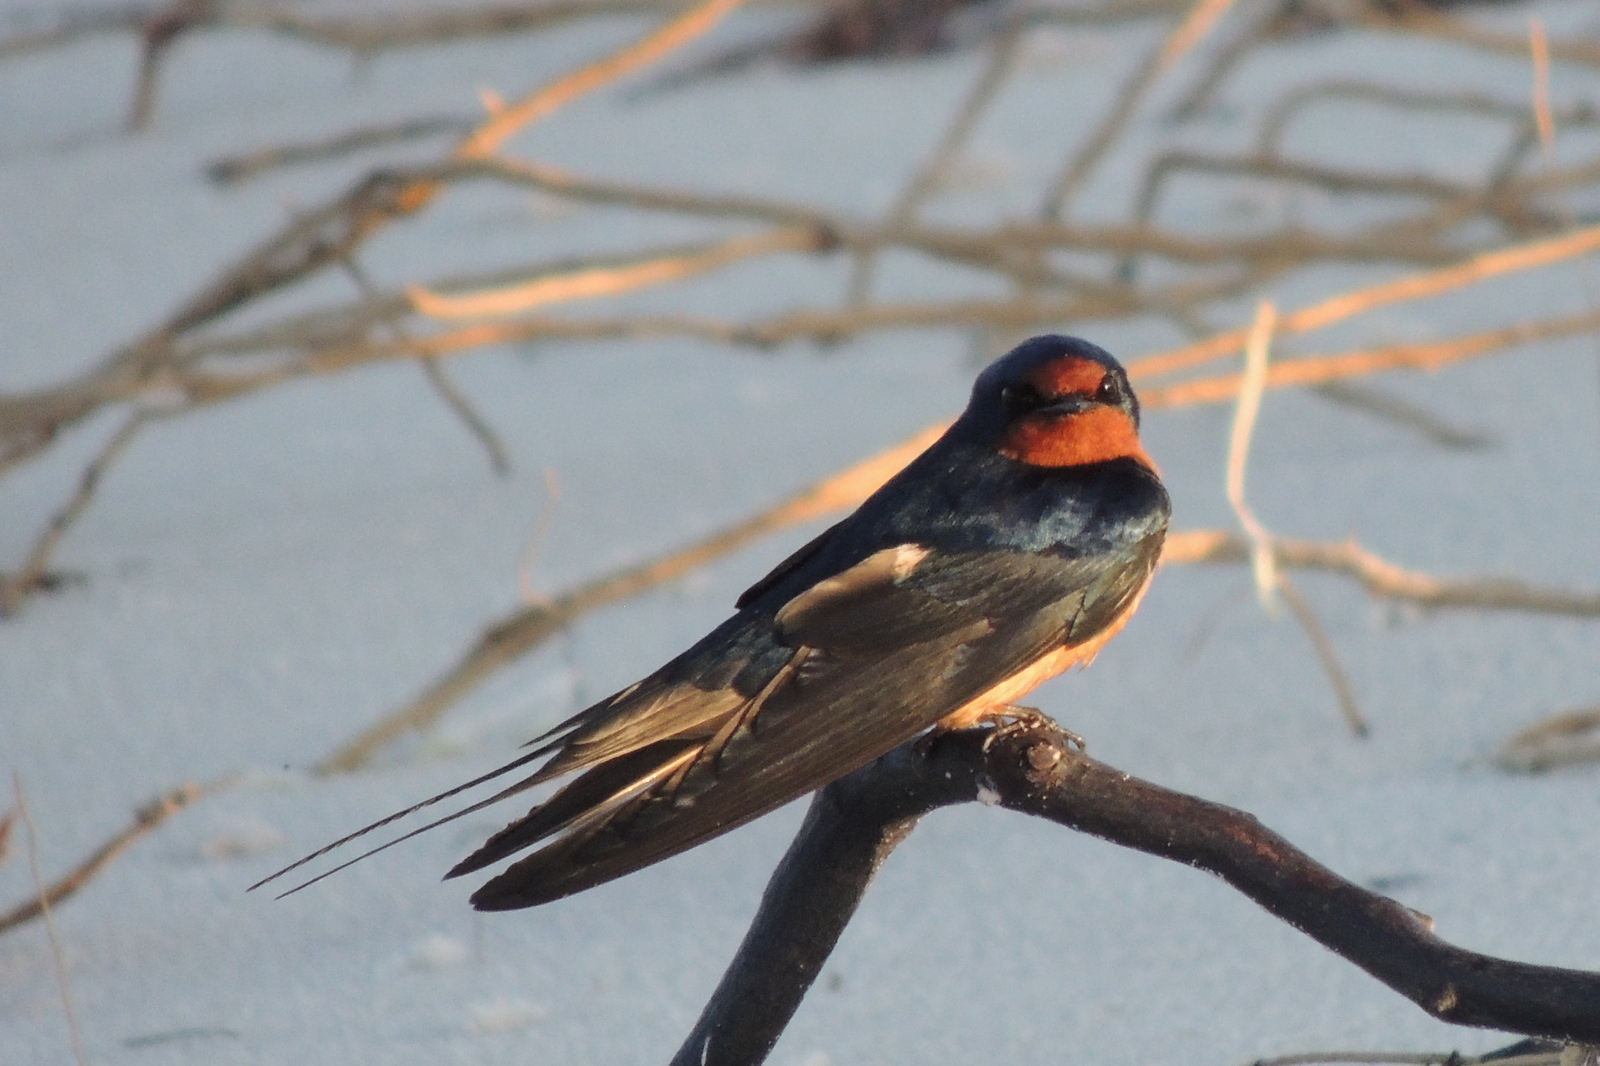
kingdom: Animalia
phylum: Chordata
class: Aves
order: Passeriformes
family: Hirundinidae
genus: Hirundo
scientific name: Hirundo rustica
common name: Barn swallow
